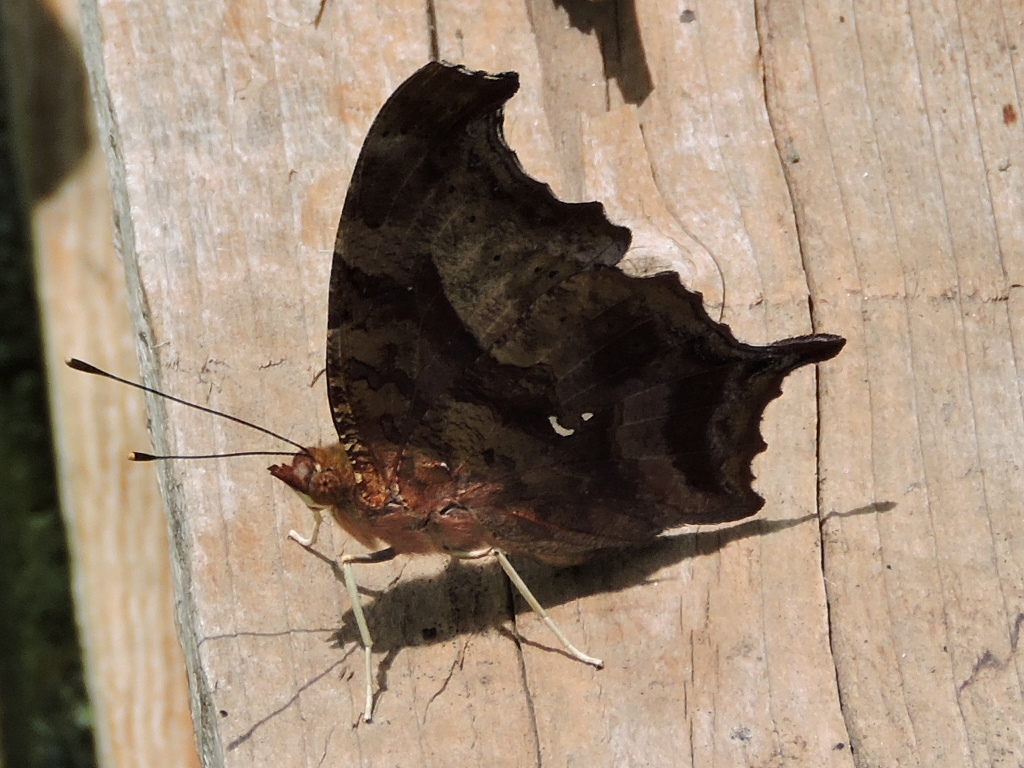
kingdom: Animalia
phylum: Arthropoda
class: Insecta
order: Lepidoptera
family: Nymphalidae
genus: Polygonia
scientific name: Polygonia interrogationis
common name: Question mark
